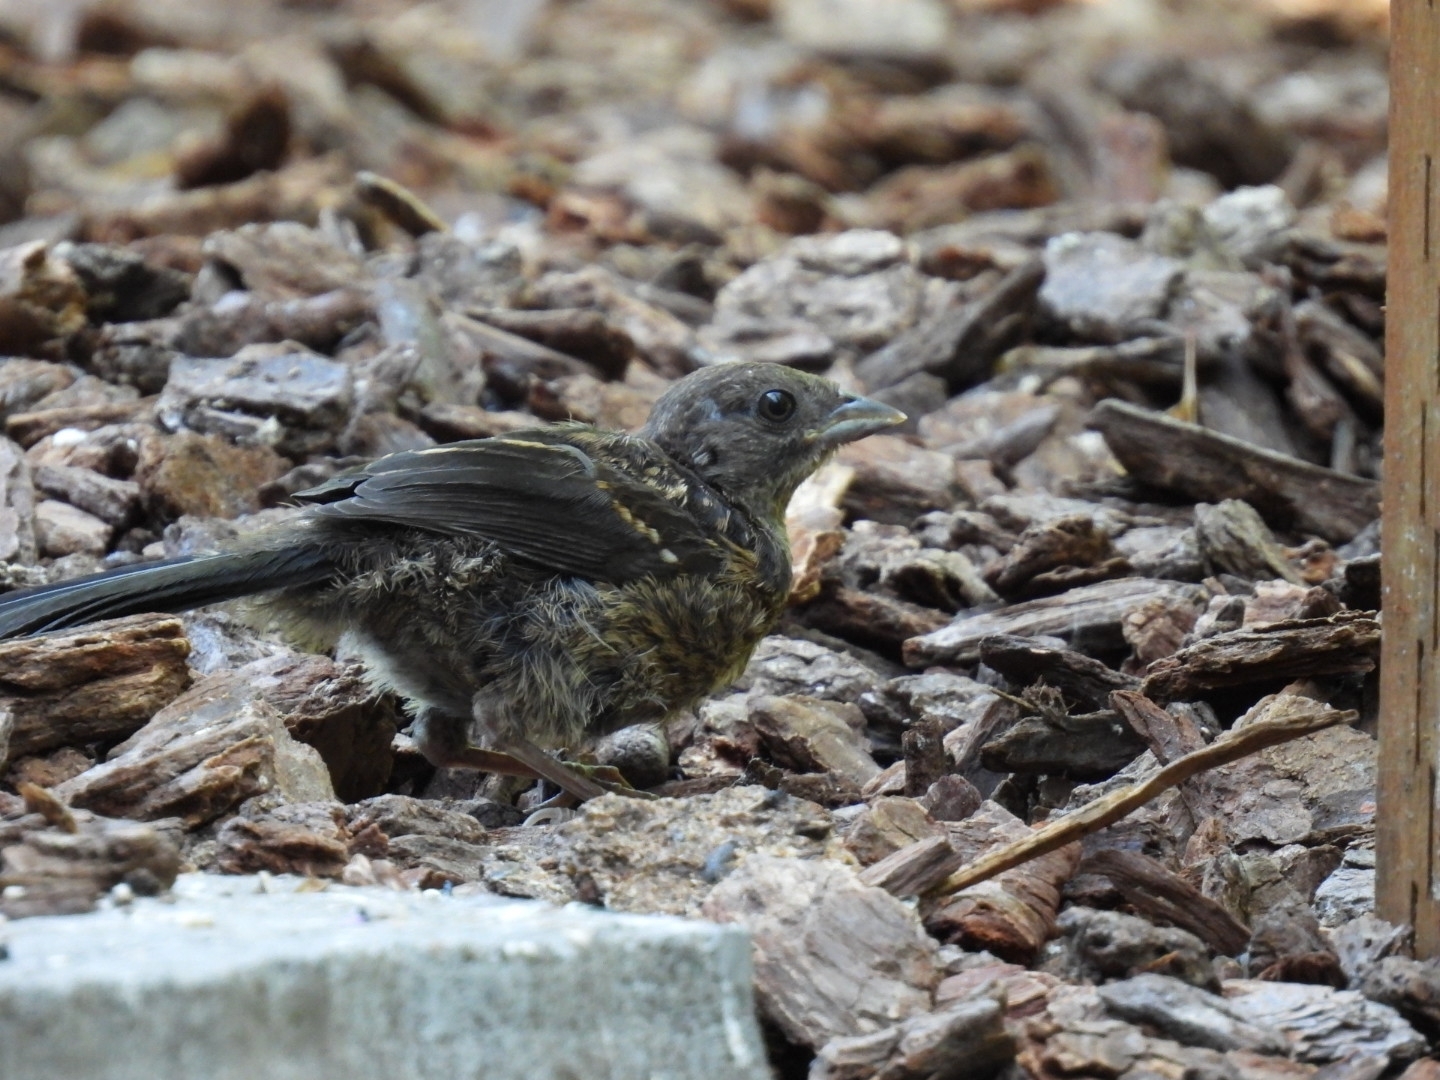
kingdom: Animalia
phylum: Chordata
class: Aves
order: Passeriformes
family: Passerellidae
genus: Pipilo
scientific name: Pipilo maculatus
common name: Spotted towhee
